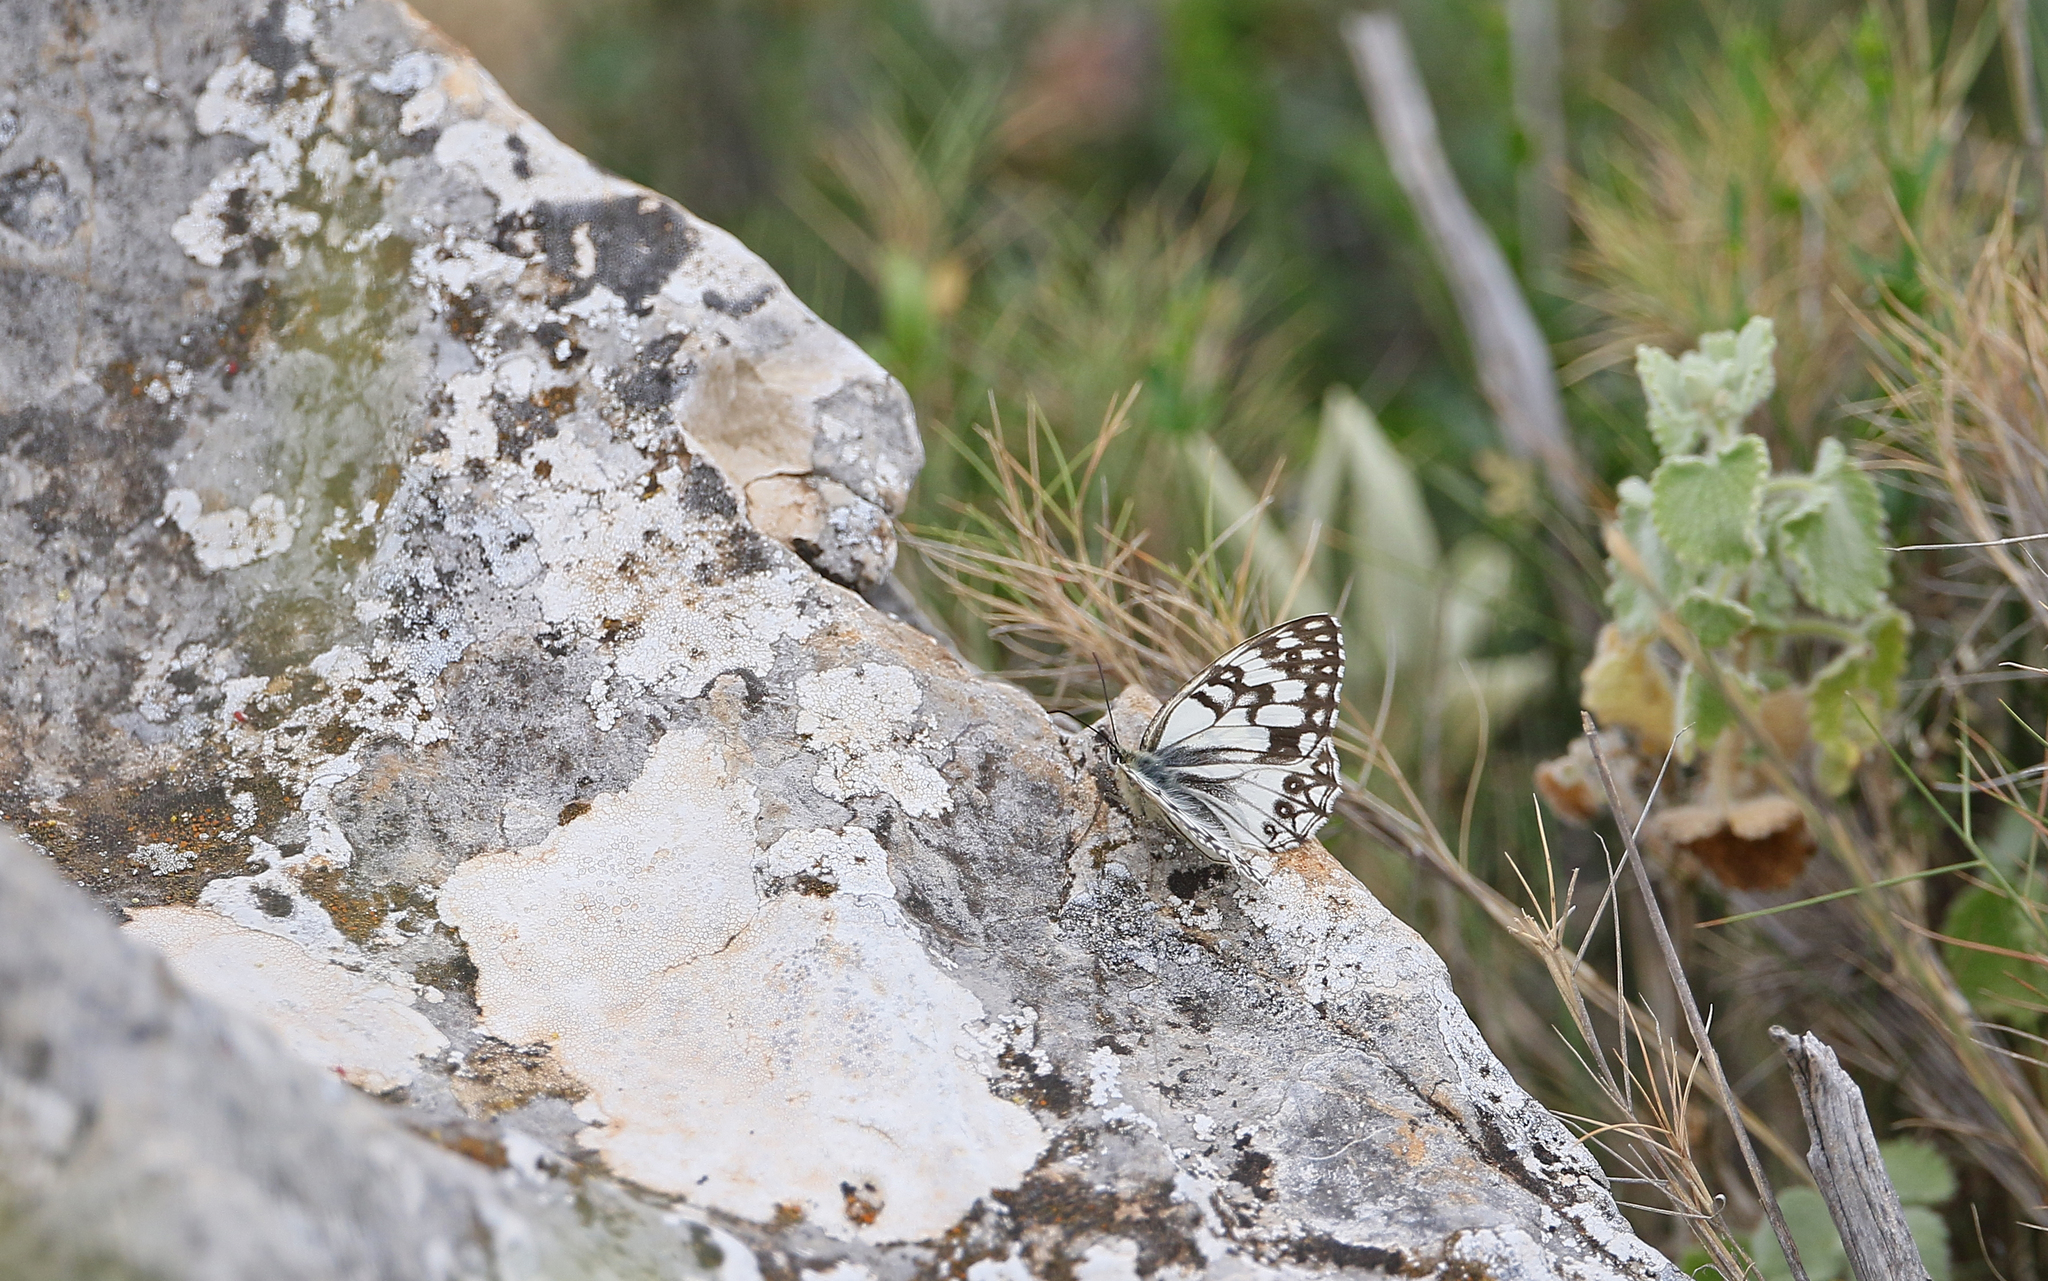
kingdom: Animalia
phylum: Arthropoda
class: Insecta
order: Lepidoptera
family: Nymphalidae
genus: Melanargia
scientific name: Melanargia occitanica
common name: Western marbled white
